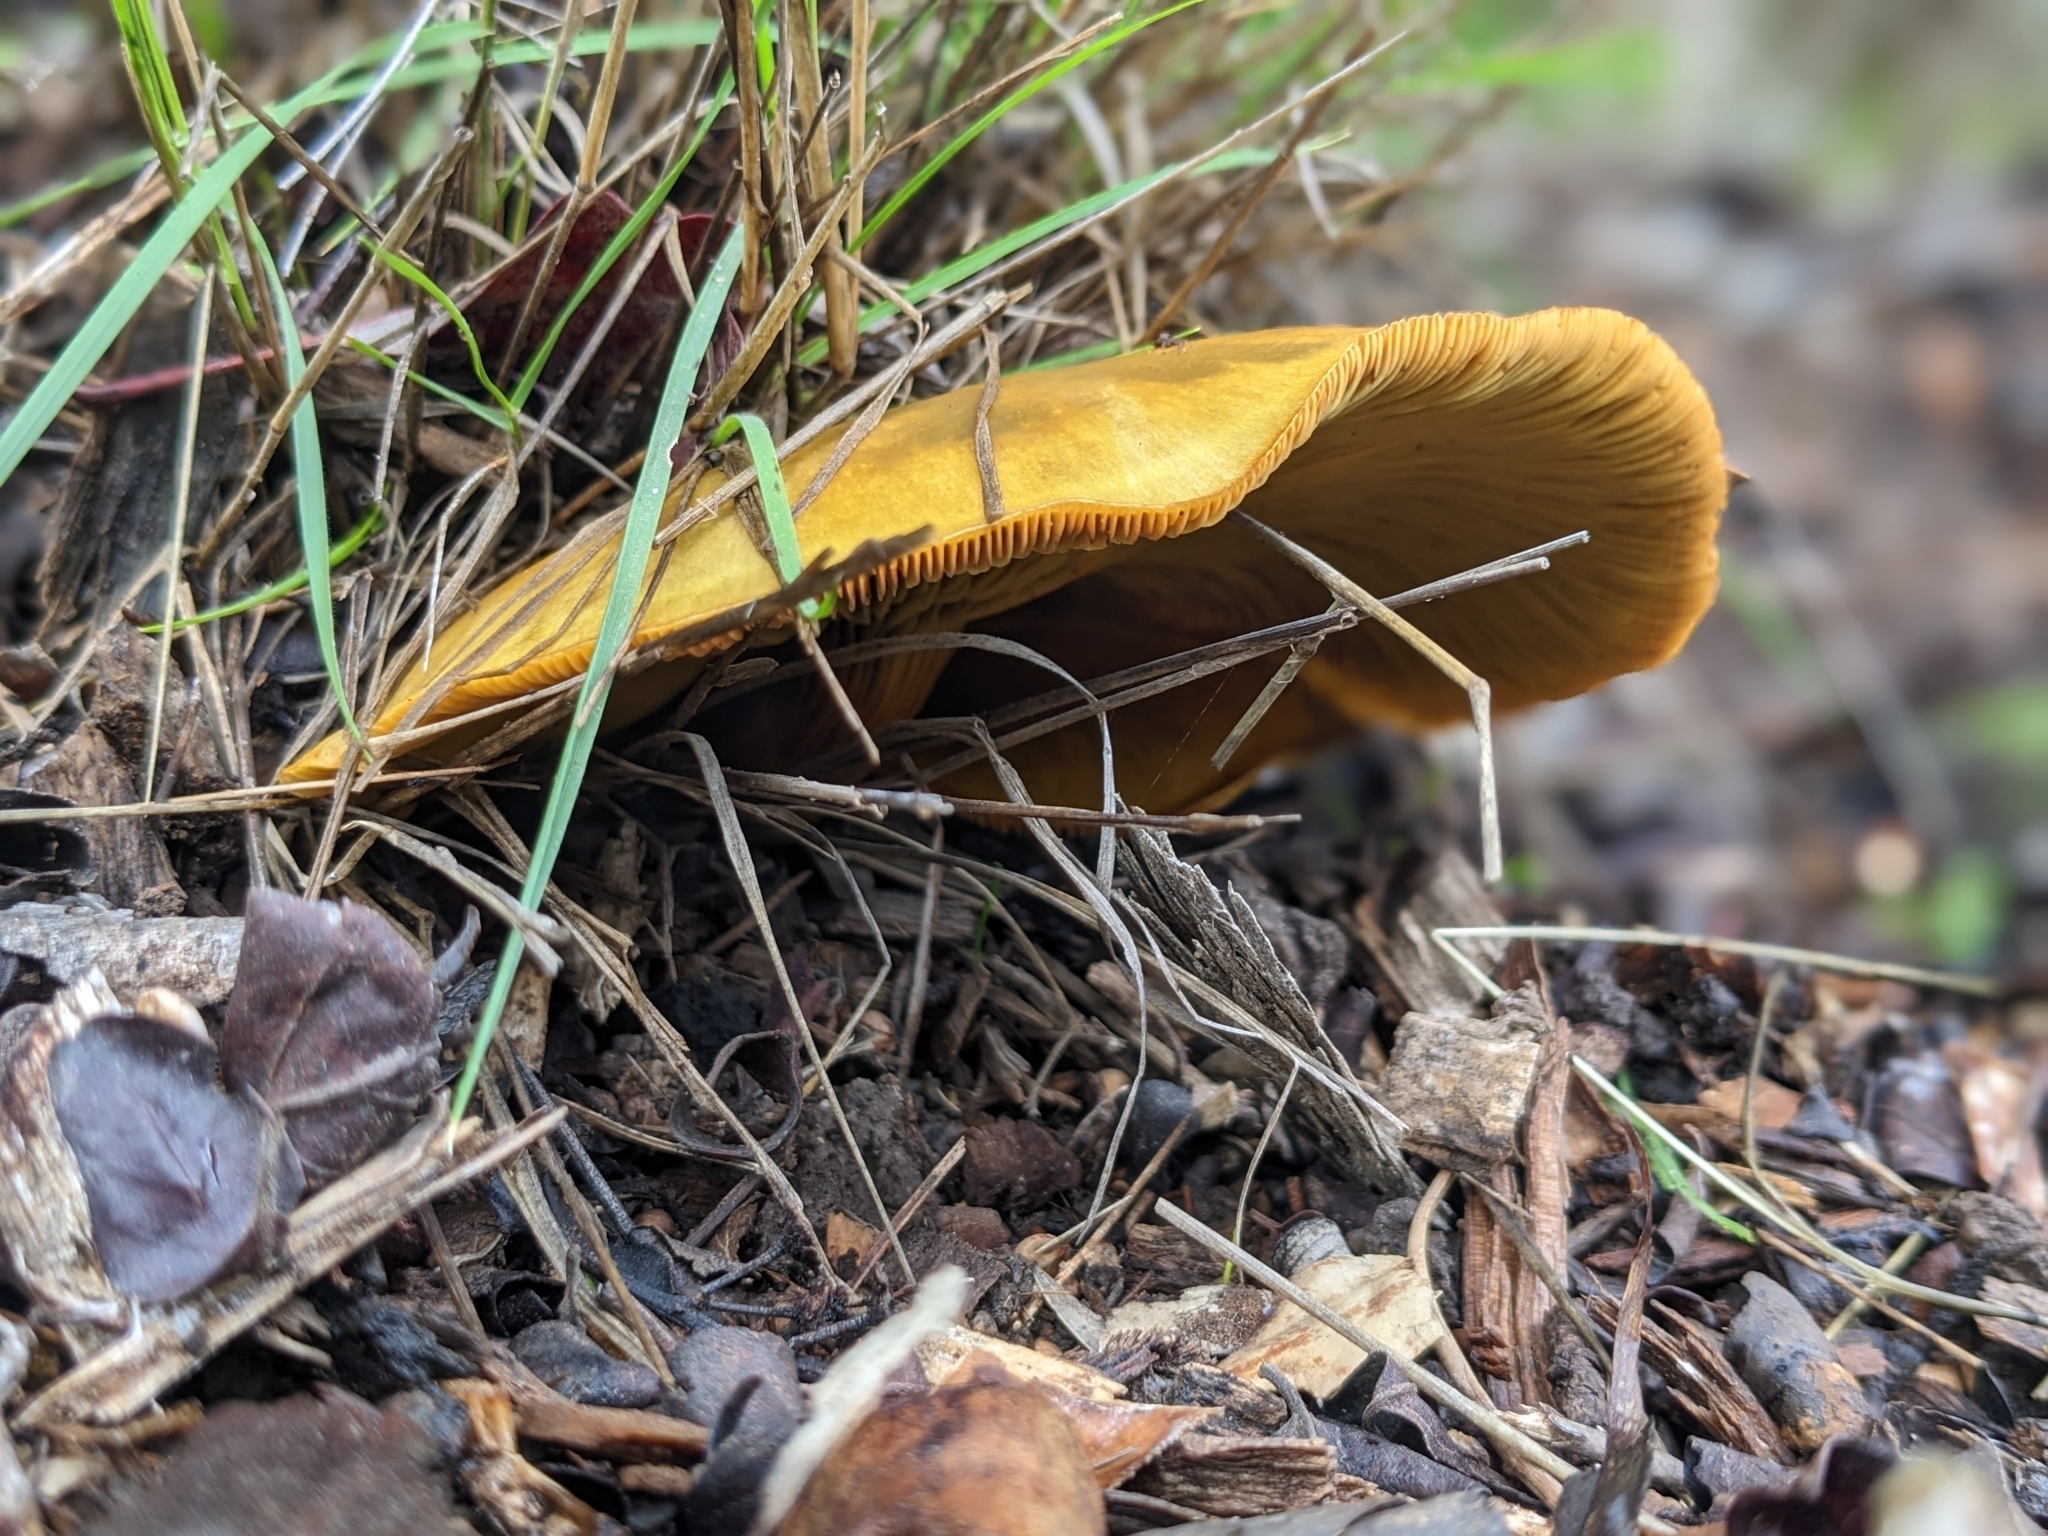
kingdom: Fungi
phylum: Basidiomycota
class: Agaricomycetes
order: Agaricales
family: Omphalotaceae
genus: Omphalotus
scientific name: Omphalotus olivascens
